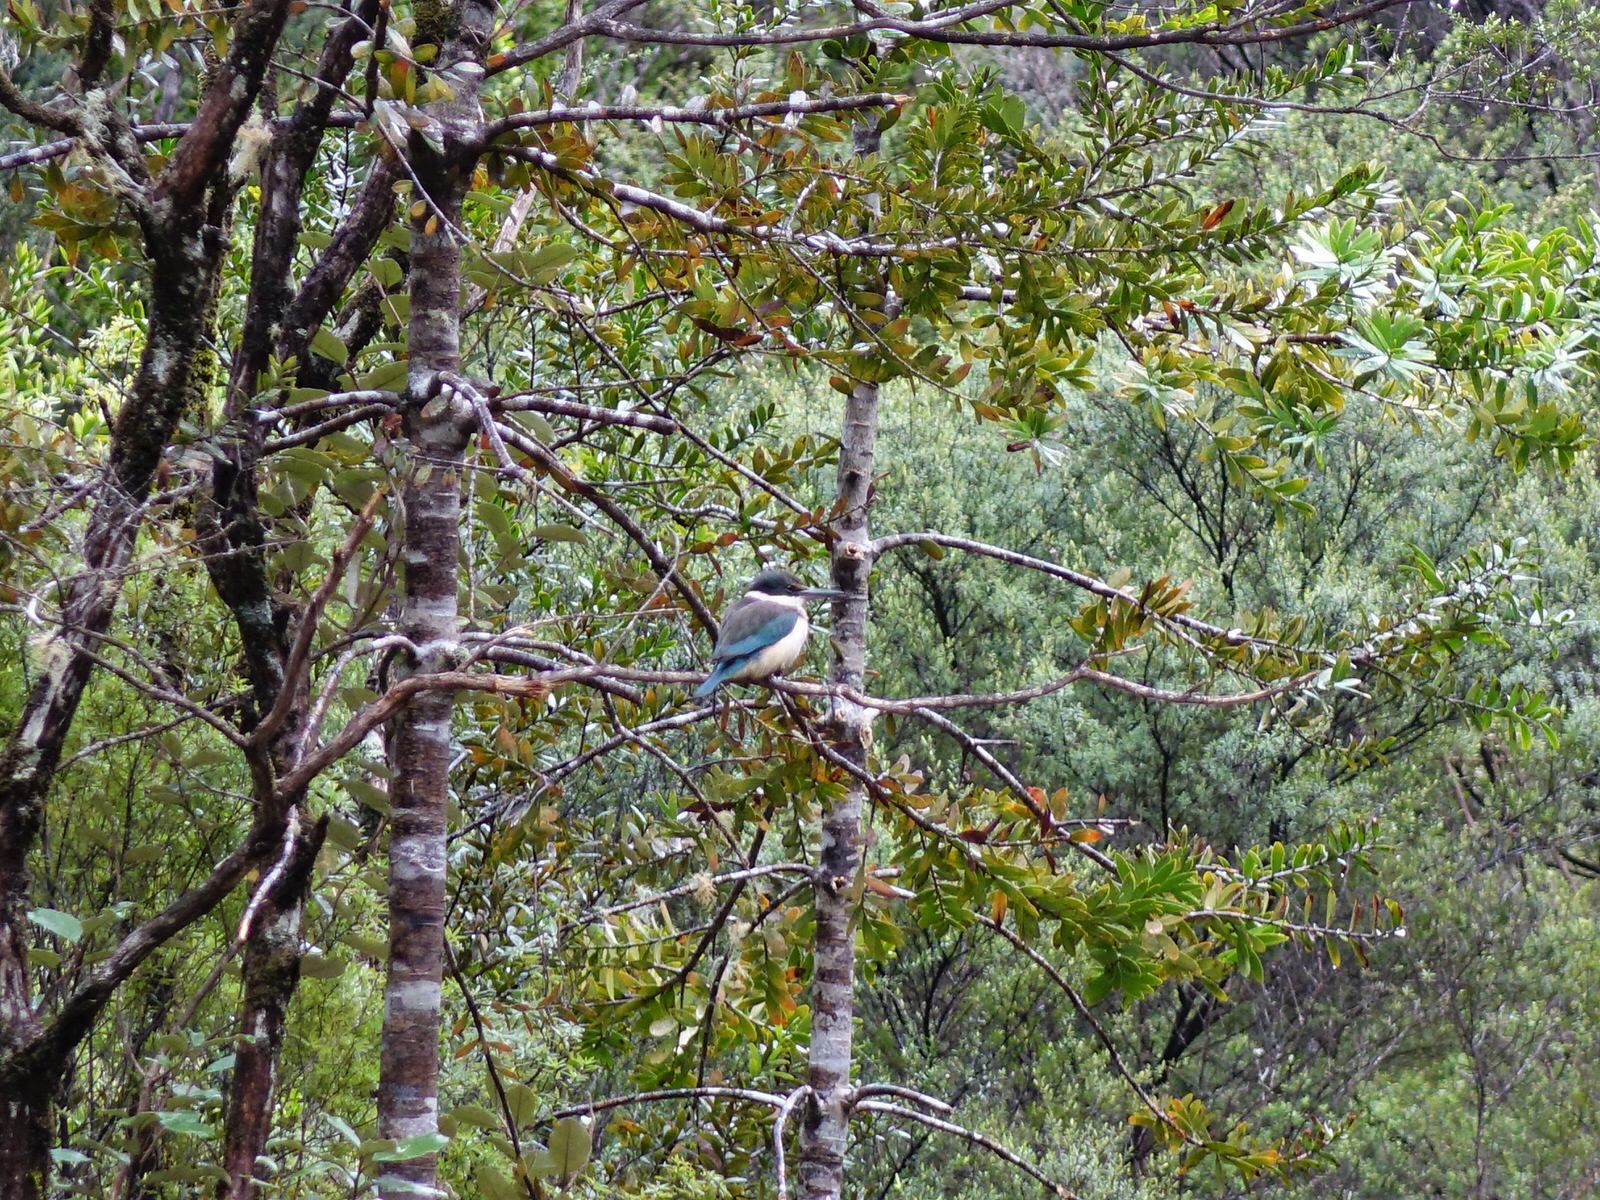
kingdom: Animalia
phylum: Chordata
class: Aves
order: Coraciiformes
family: Alcedinidae
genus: Todiramphus
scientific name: Todiramphus sanctus
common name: Sacred kingfisher
